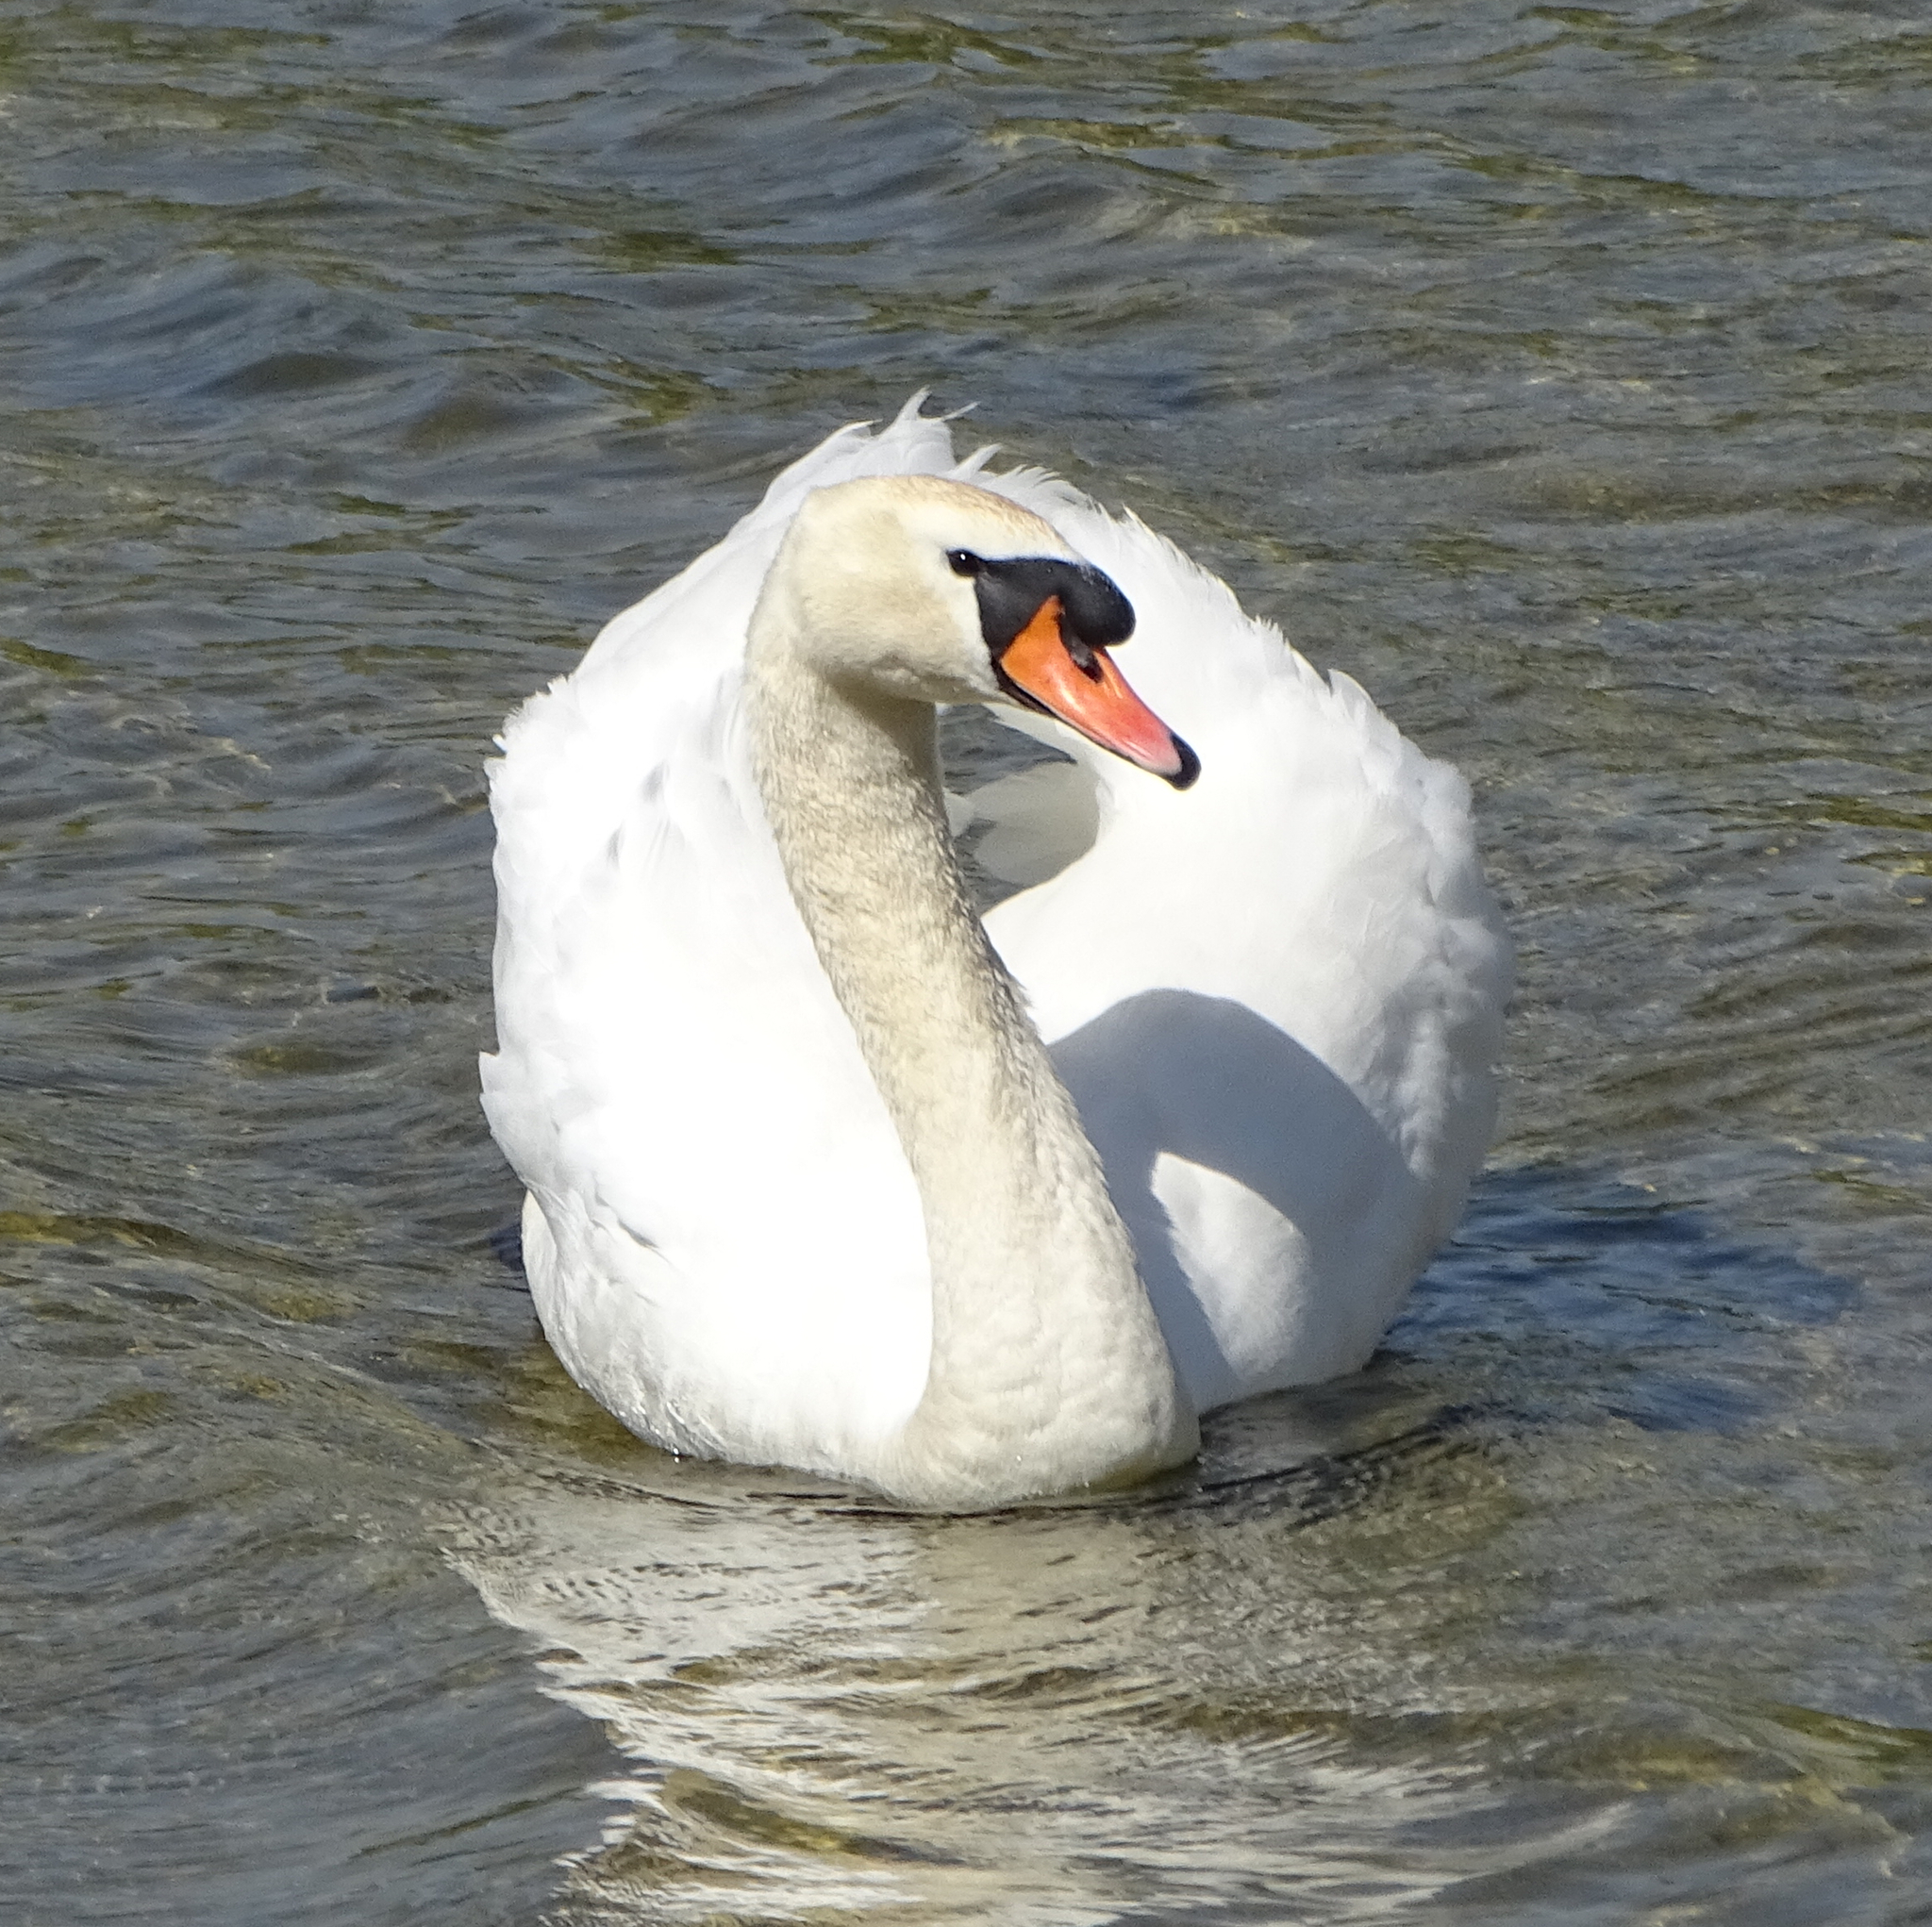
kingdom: Animalia
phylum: Chordata
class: Aves
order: Anseriformes
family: Anatidae
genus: Cygnus
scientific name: Cygnus olor
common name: Mute swan
